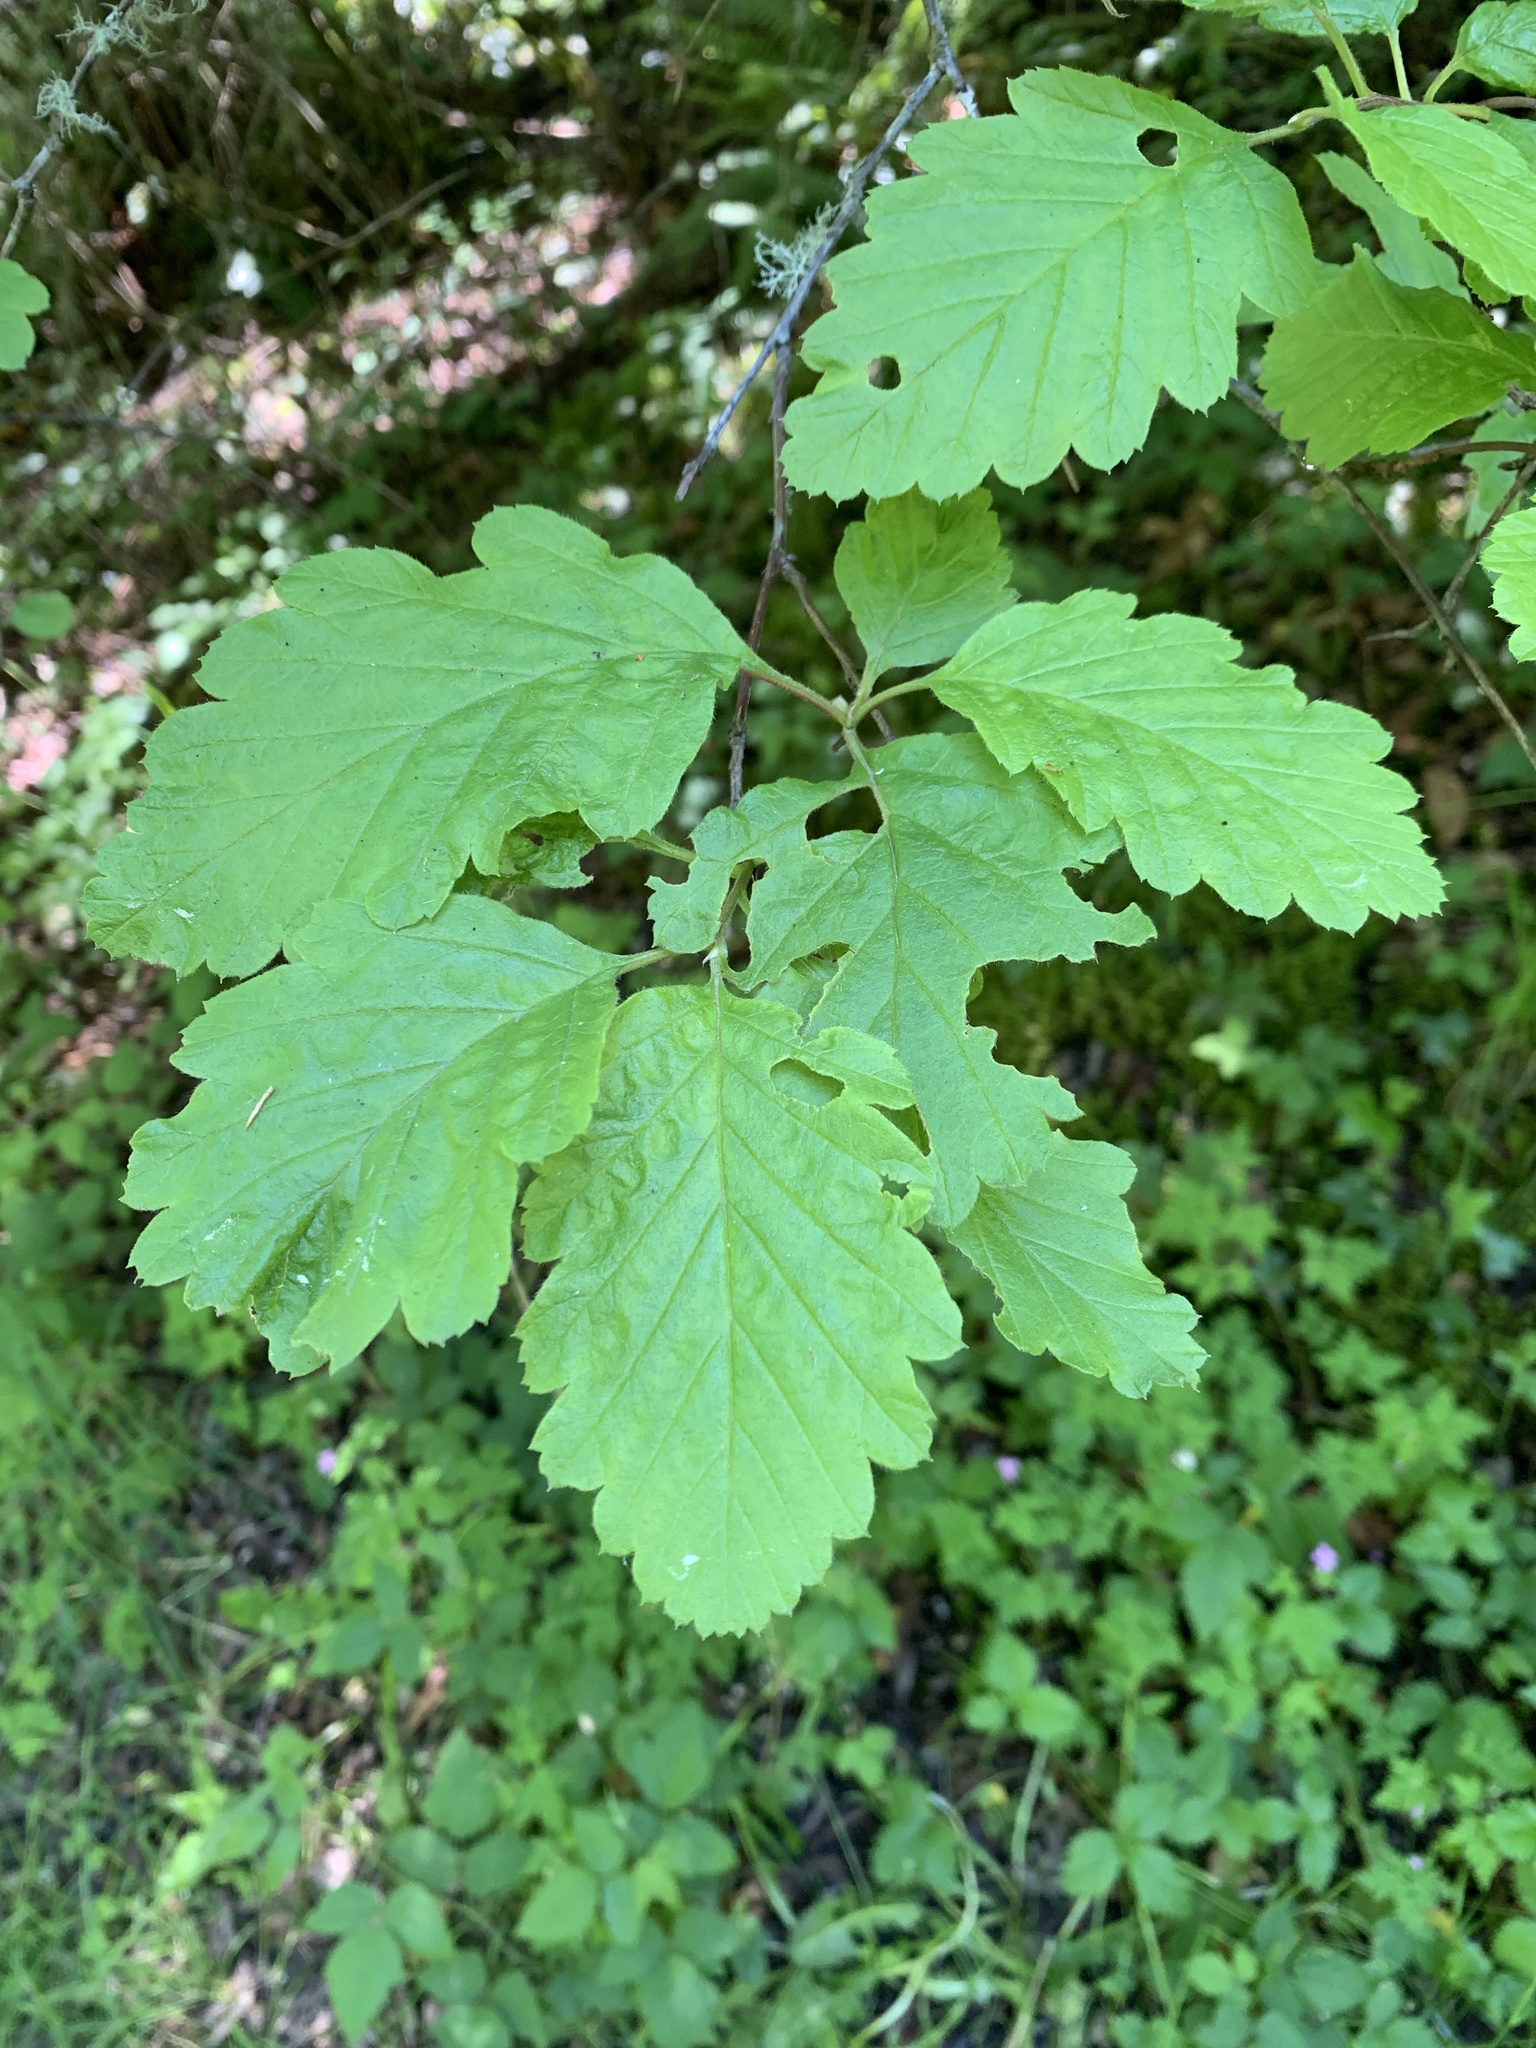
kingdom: Plantae
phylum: Tracheophyta
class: Magnoliopsida
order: Rosales
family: Rosaceae
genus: Holodiscus
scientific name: Holodiscus discolor
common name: Oceanspray
